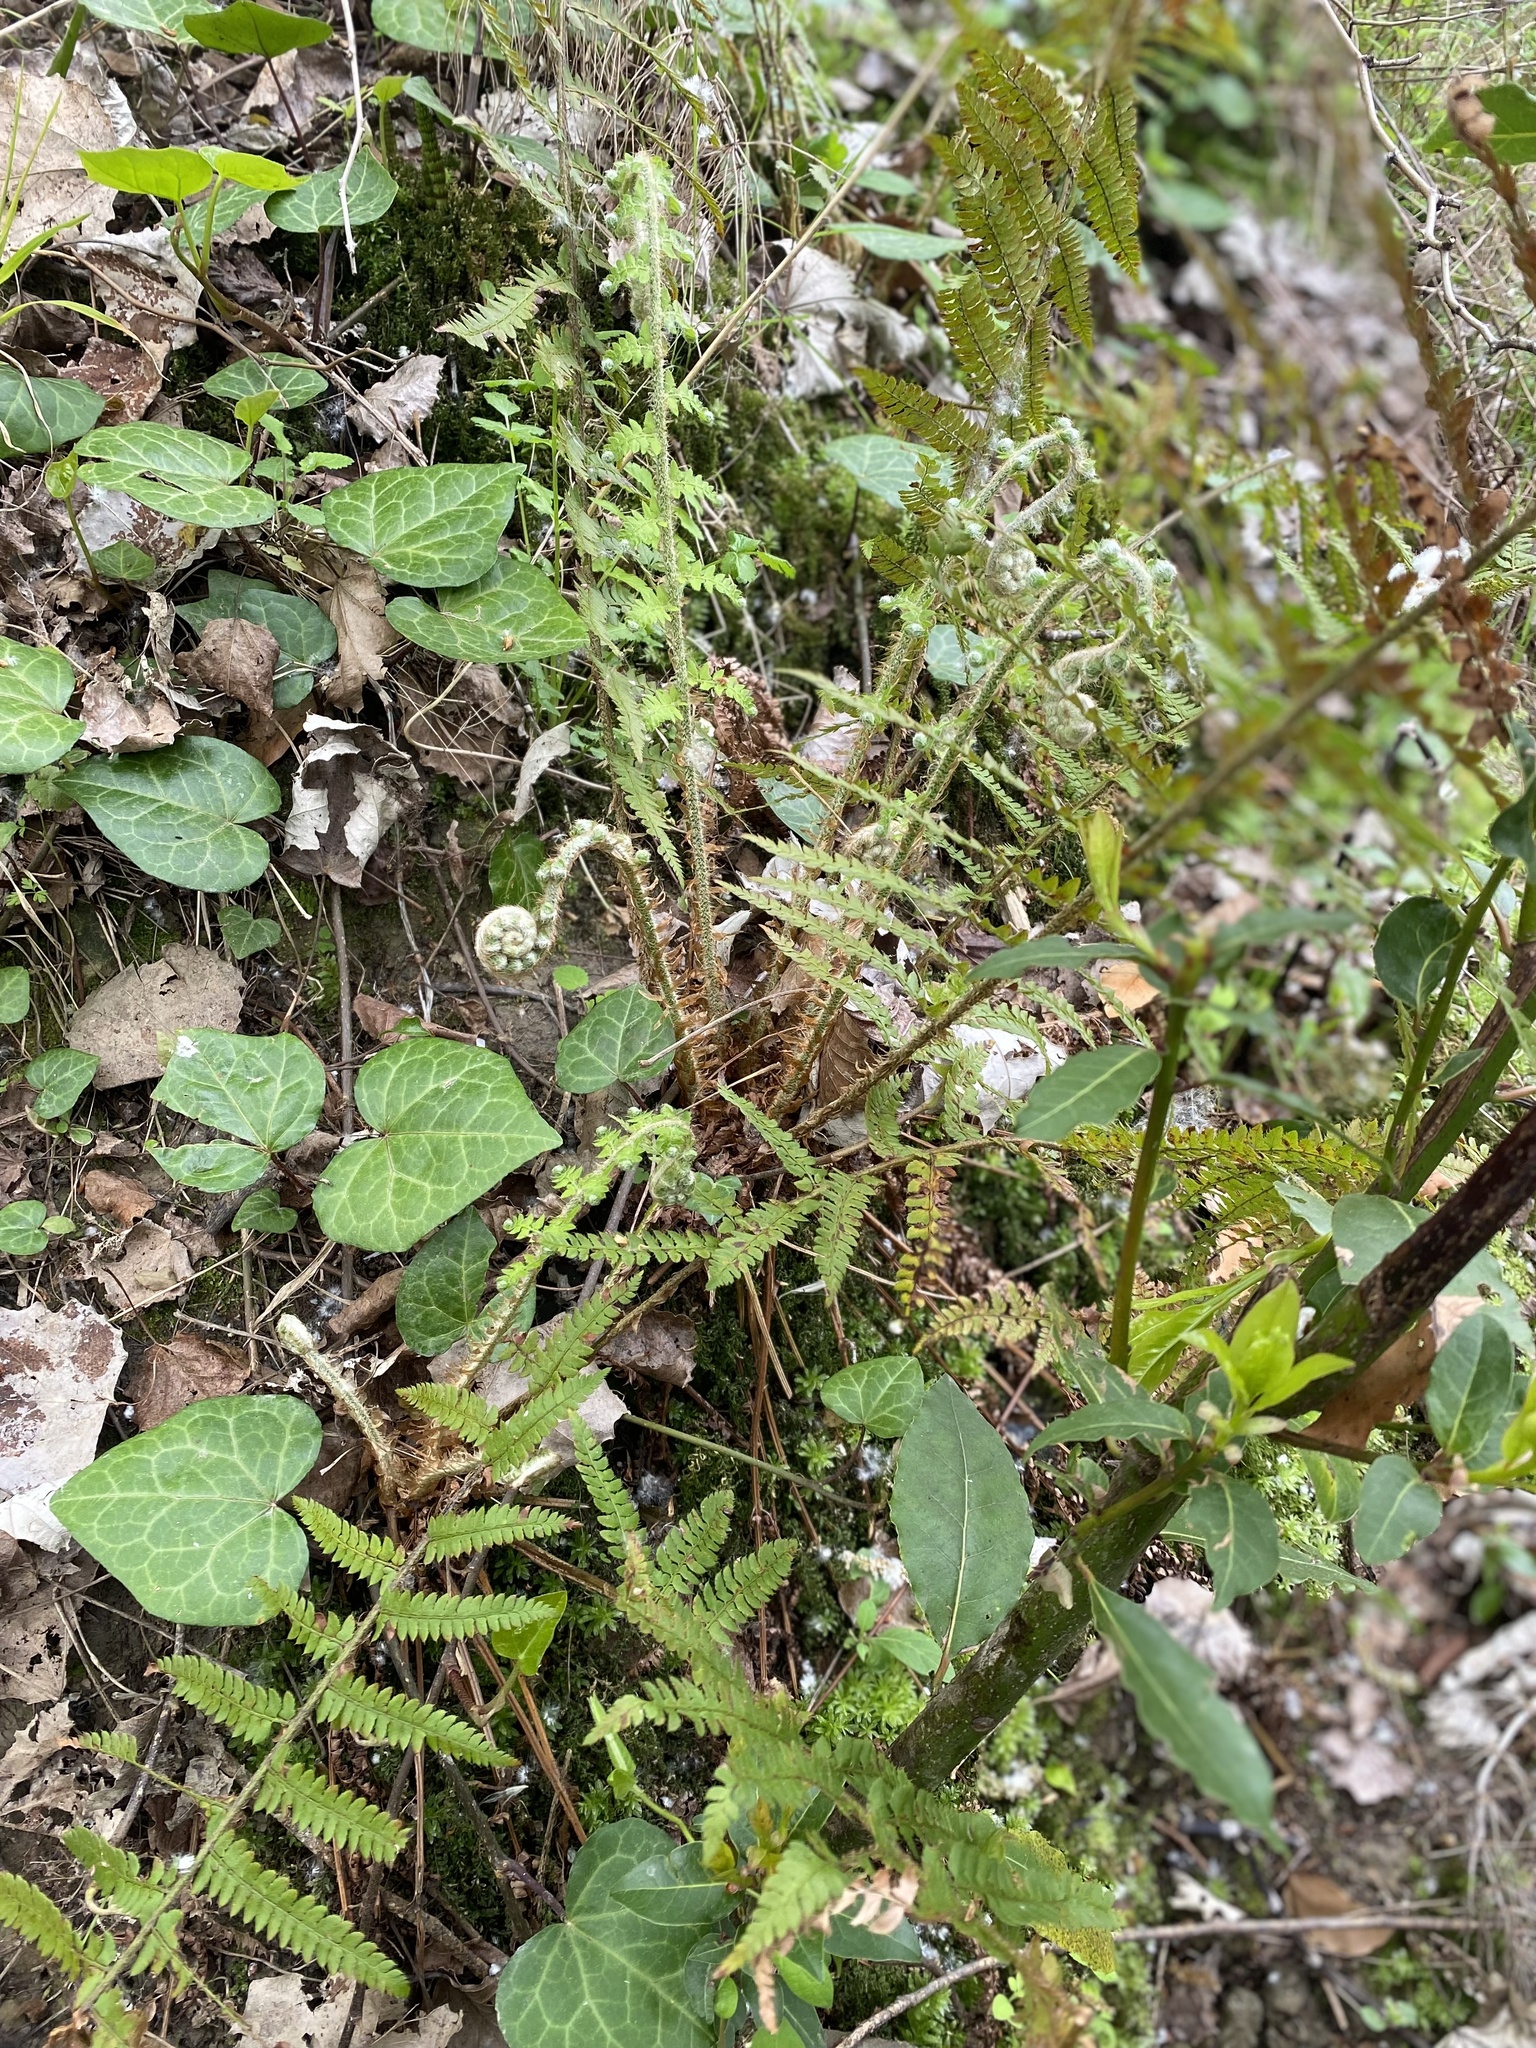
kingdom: Plantae
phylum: Tracheophyta
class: Polypodiopsida
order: Polypodiales
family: Dryopteridaceae
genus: Polystichum
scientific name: Polystichum setiferum
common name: Soft shield-fern
